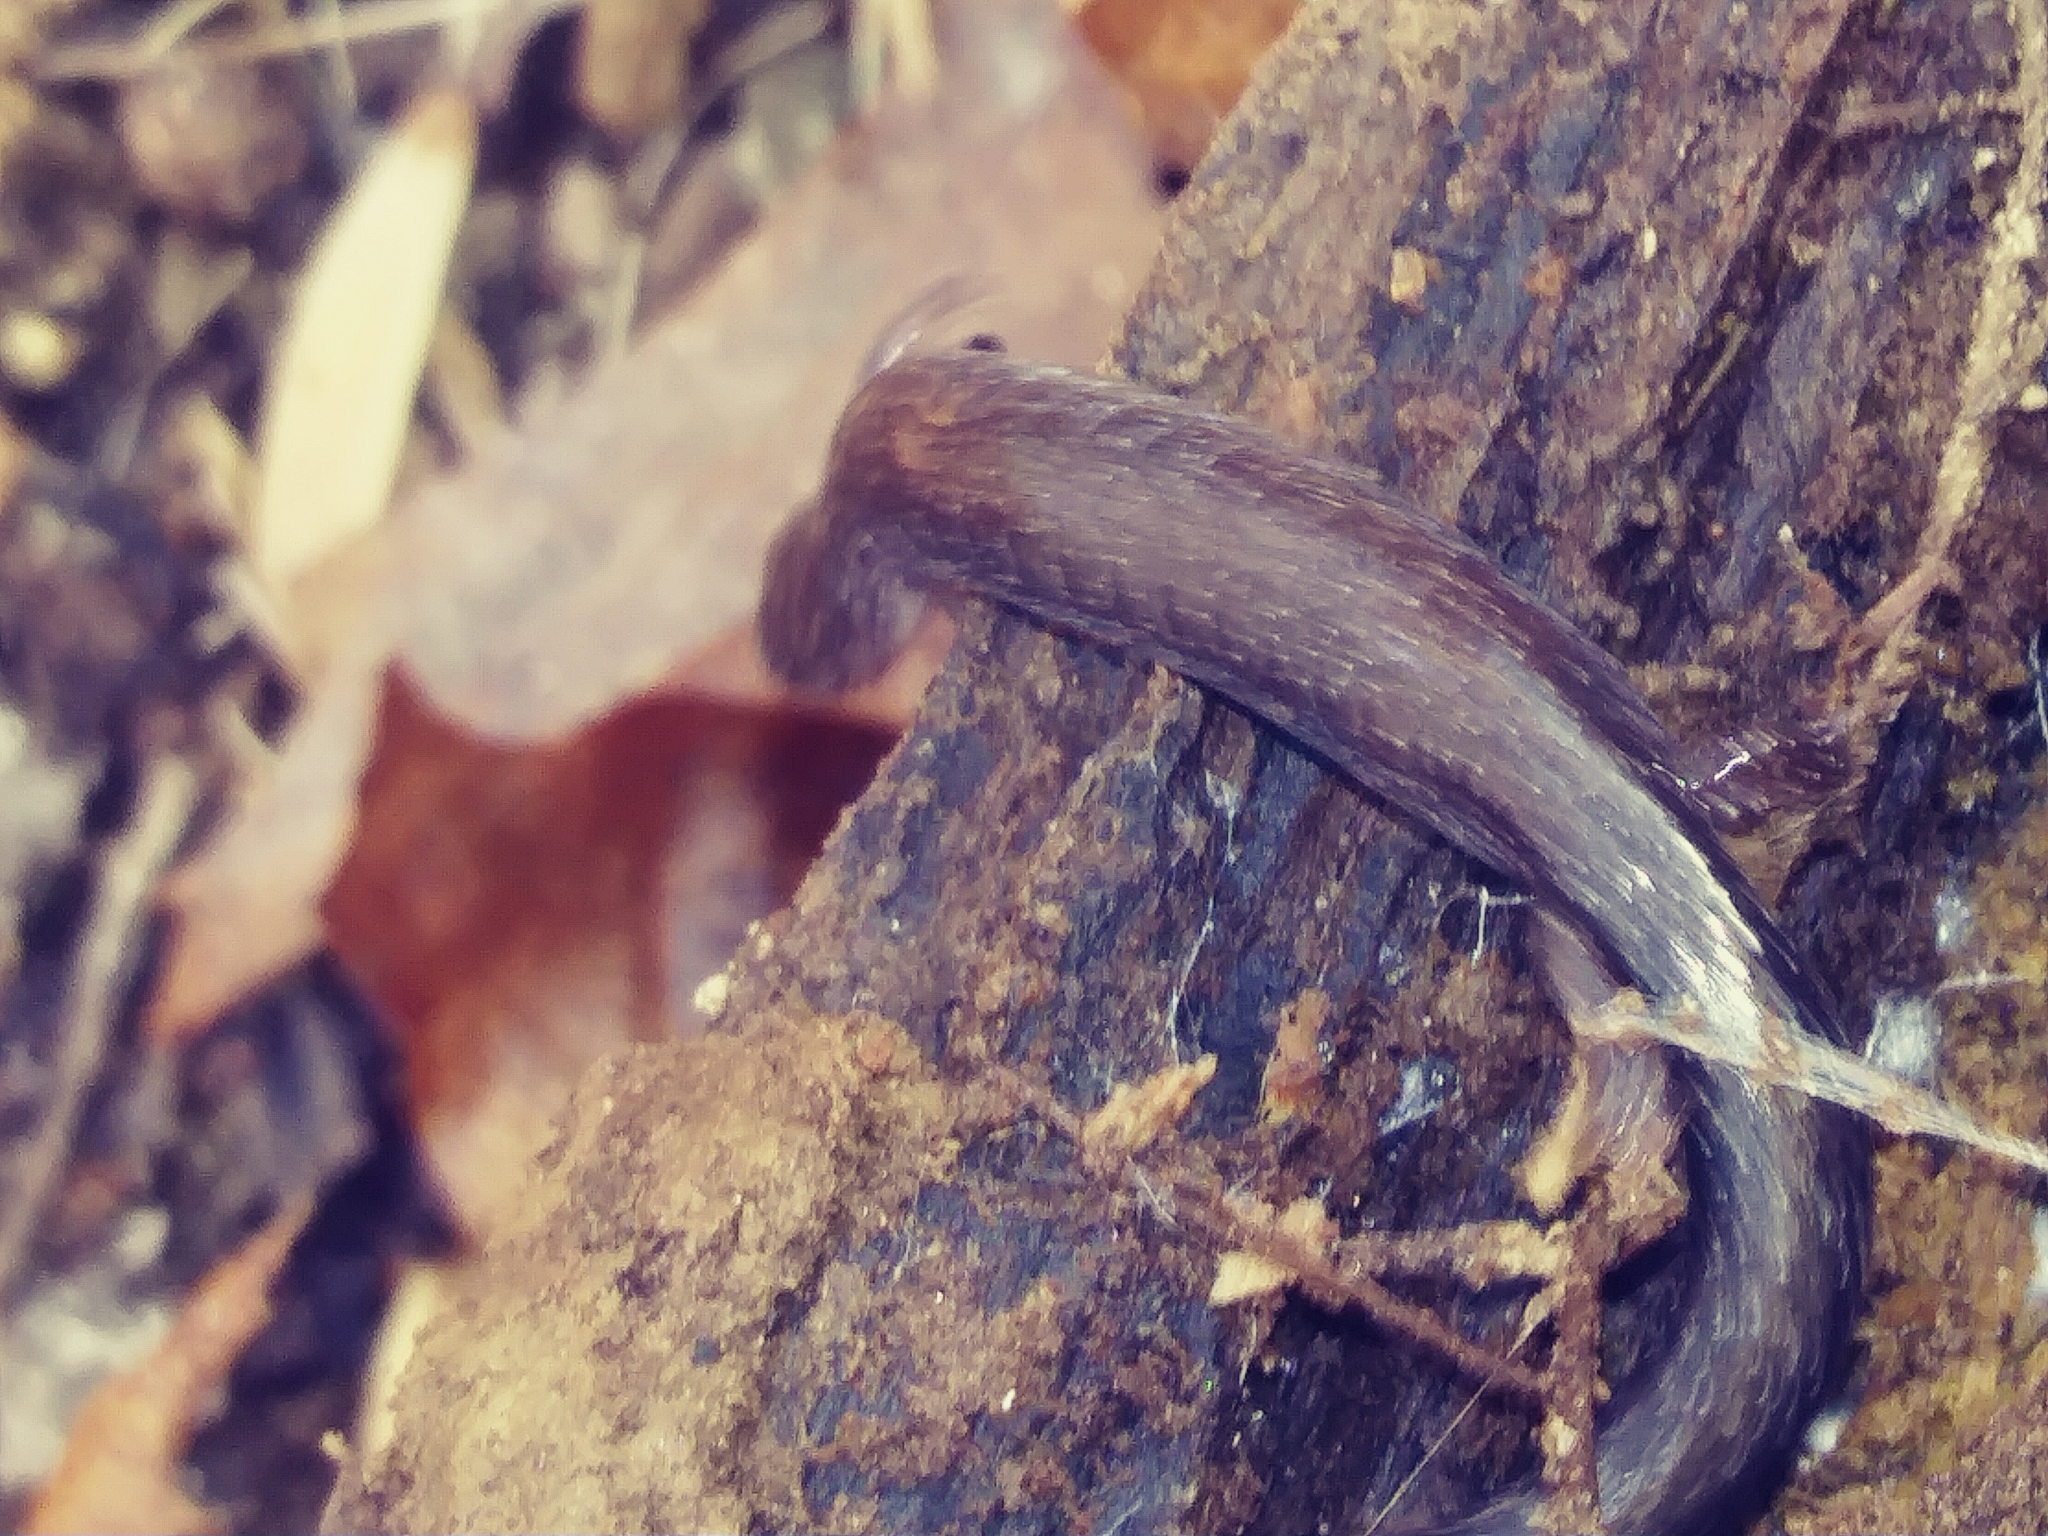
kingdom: Animalia
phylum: Chordata
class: Amphibia
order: Caudata
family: Plethodontidae
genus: Plethodon
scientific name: Plethodon cinereus
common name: Redback salamander
